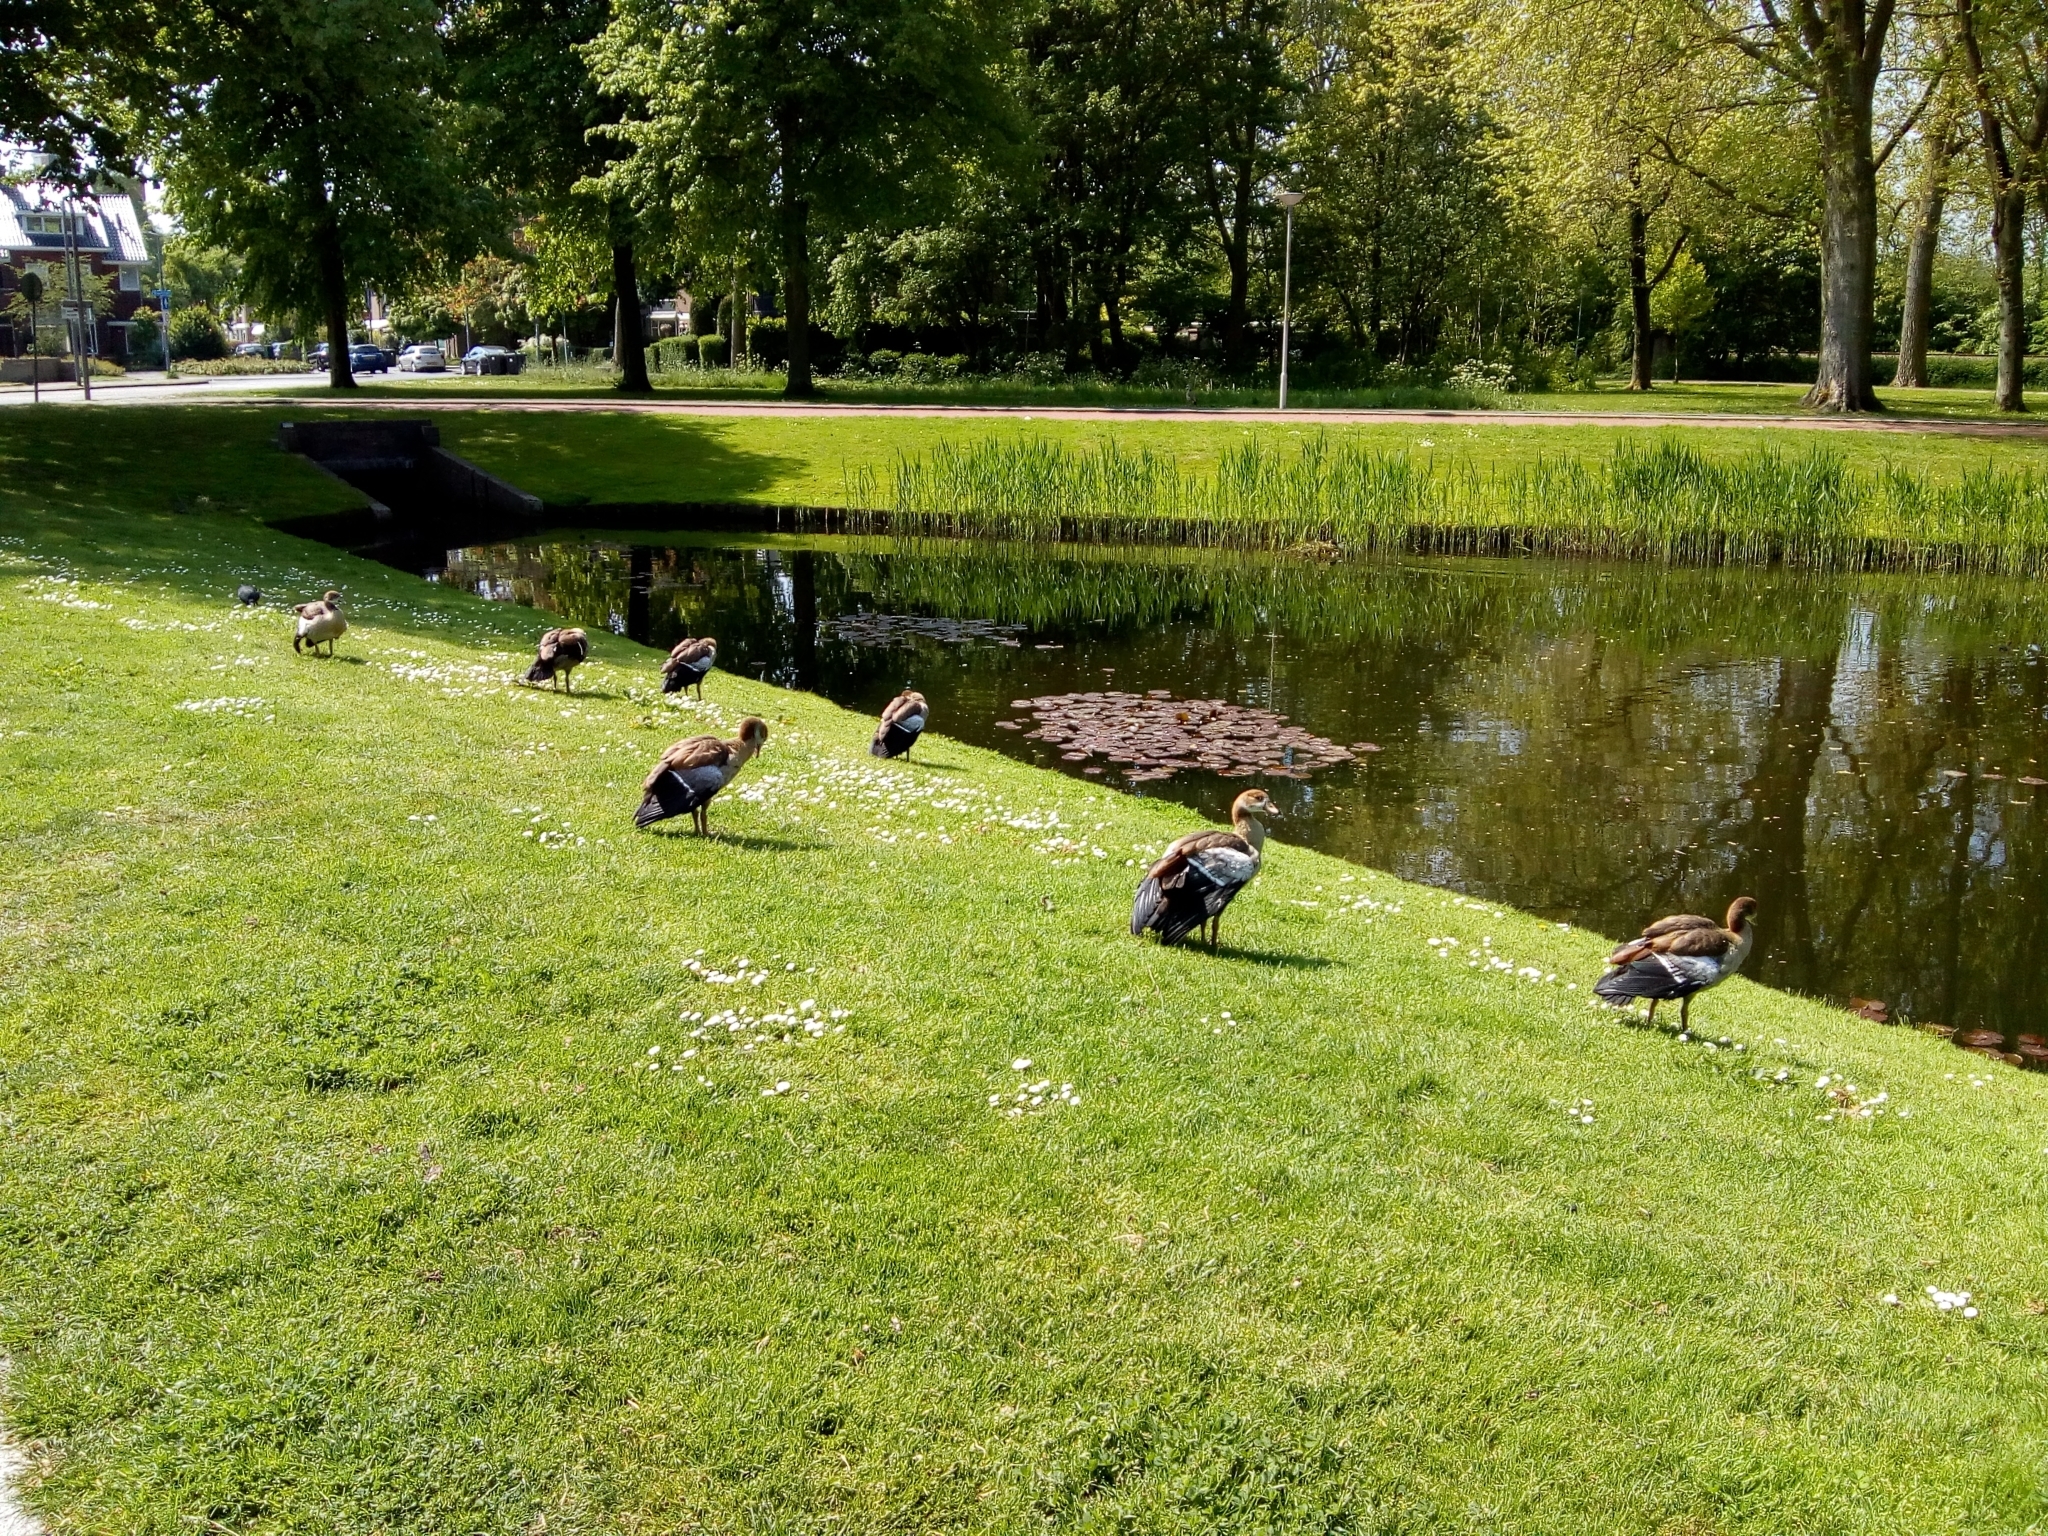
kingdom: Animalia
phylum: Chordata
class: Aves
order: Anseriformes
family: Anatidae
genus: Alopochen
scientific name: Alopochen aegyptiaca
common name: Egyptian goose
